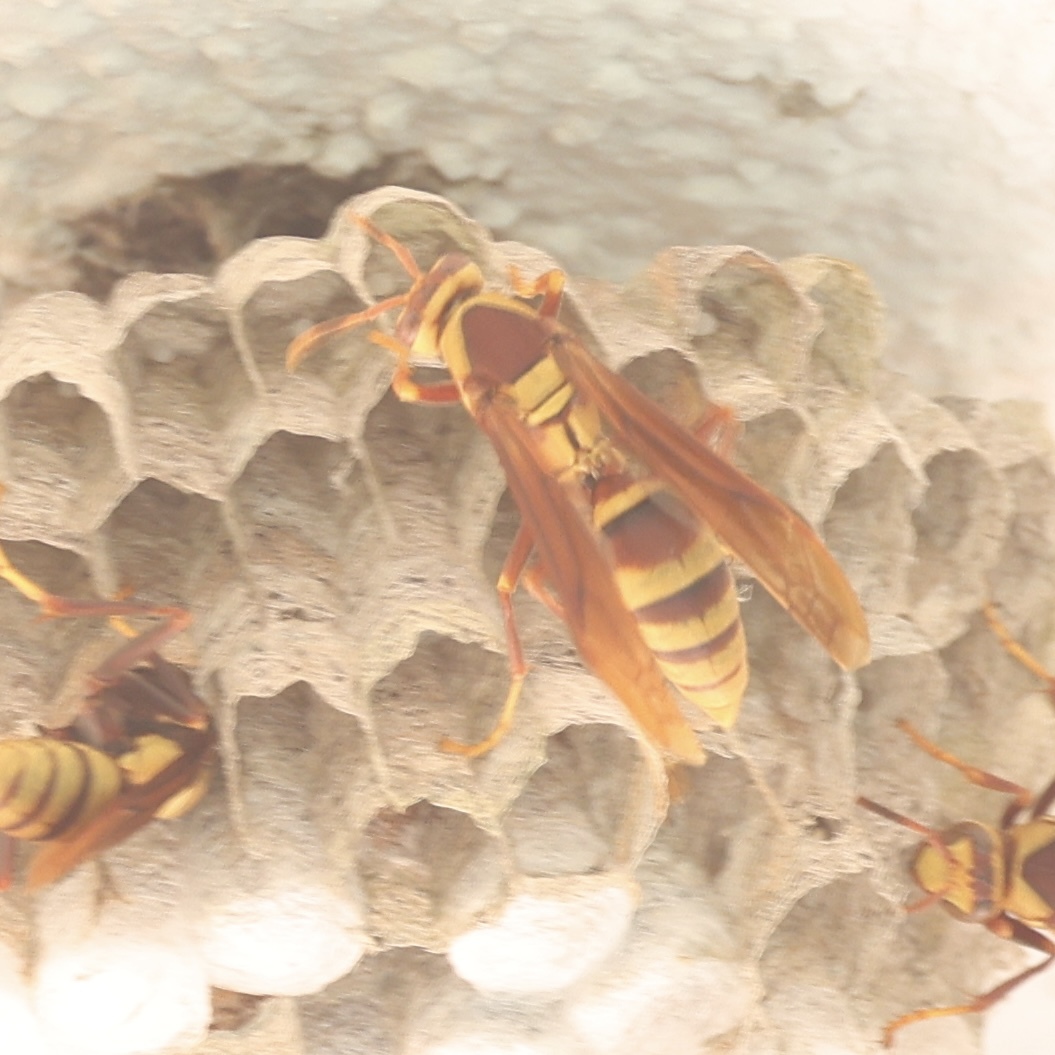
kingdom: Animalia
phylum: Arthropoda
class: Insecta
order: Hymenoptera
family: Eumenidae
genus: Polistes
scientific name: Polistes major
